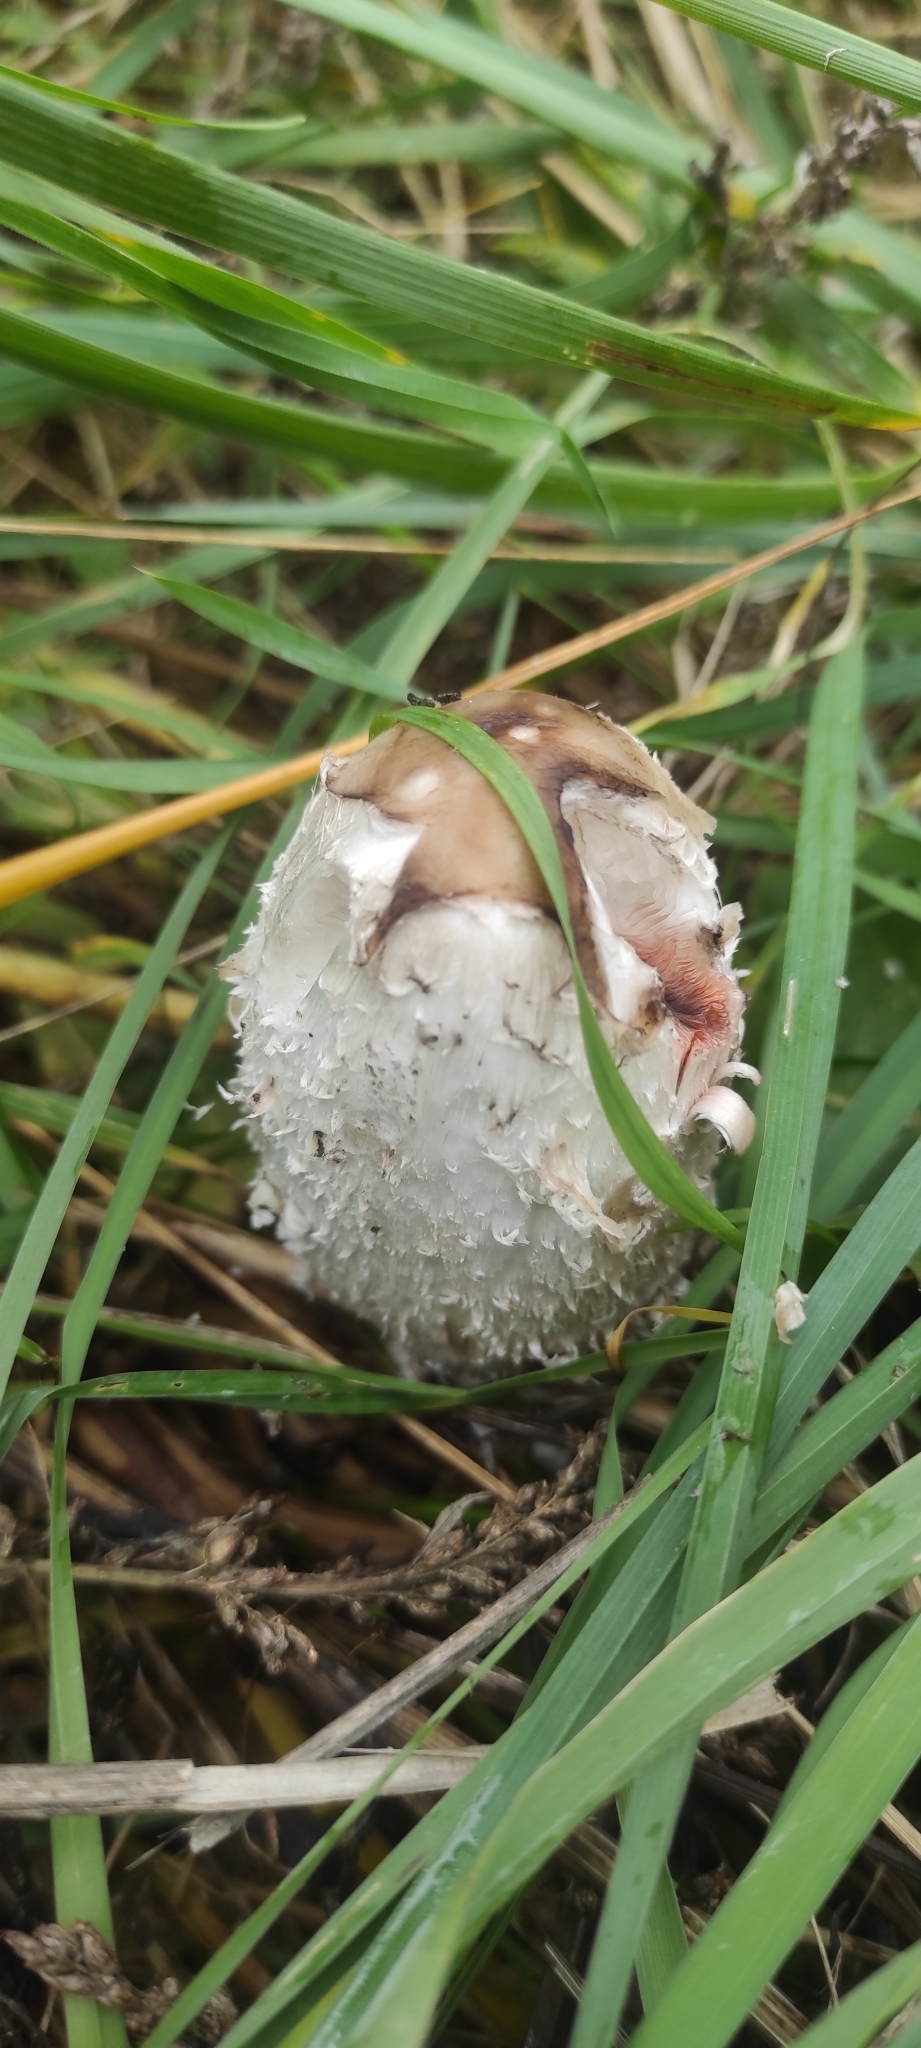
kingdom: Fungi
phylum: Basidiomycota
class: Agaricomycetes
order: Agaricales
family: Agaricaceae
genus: Coprinus
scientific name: Coprinus comatus
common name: Lawyer's wig
